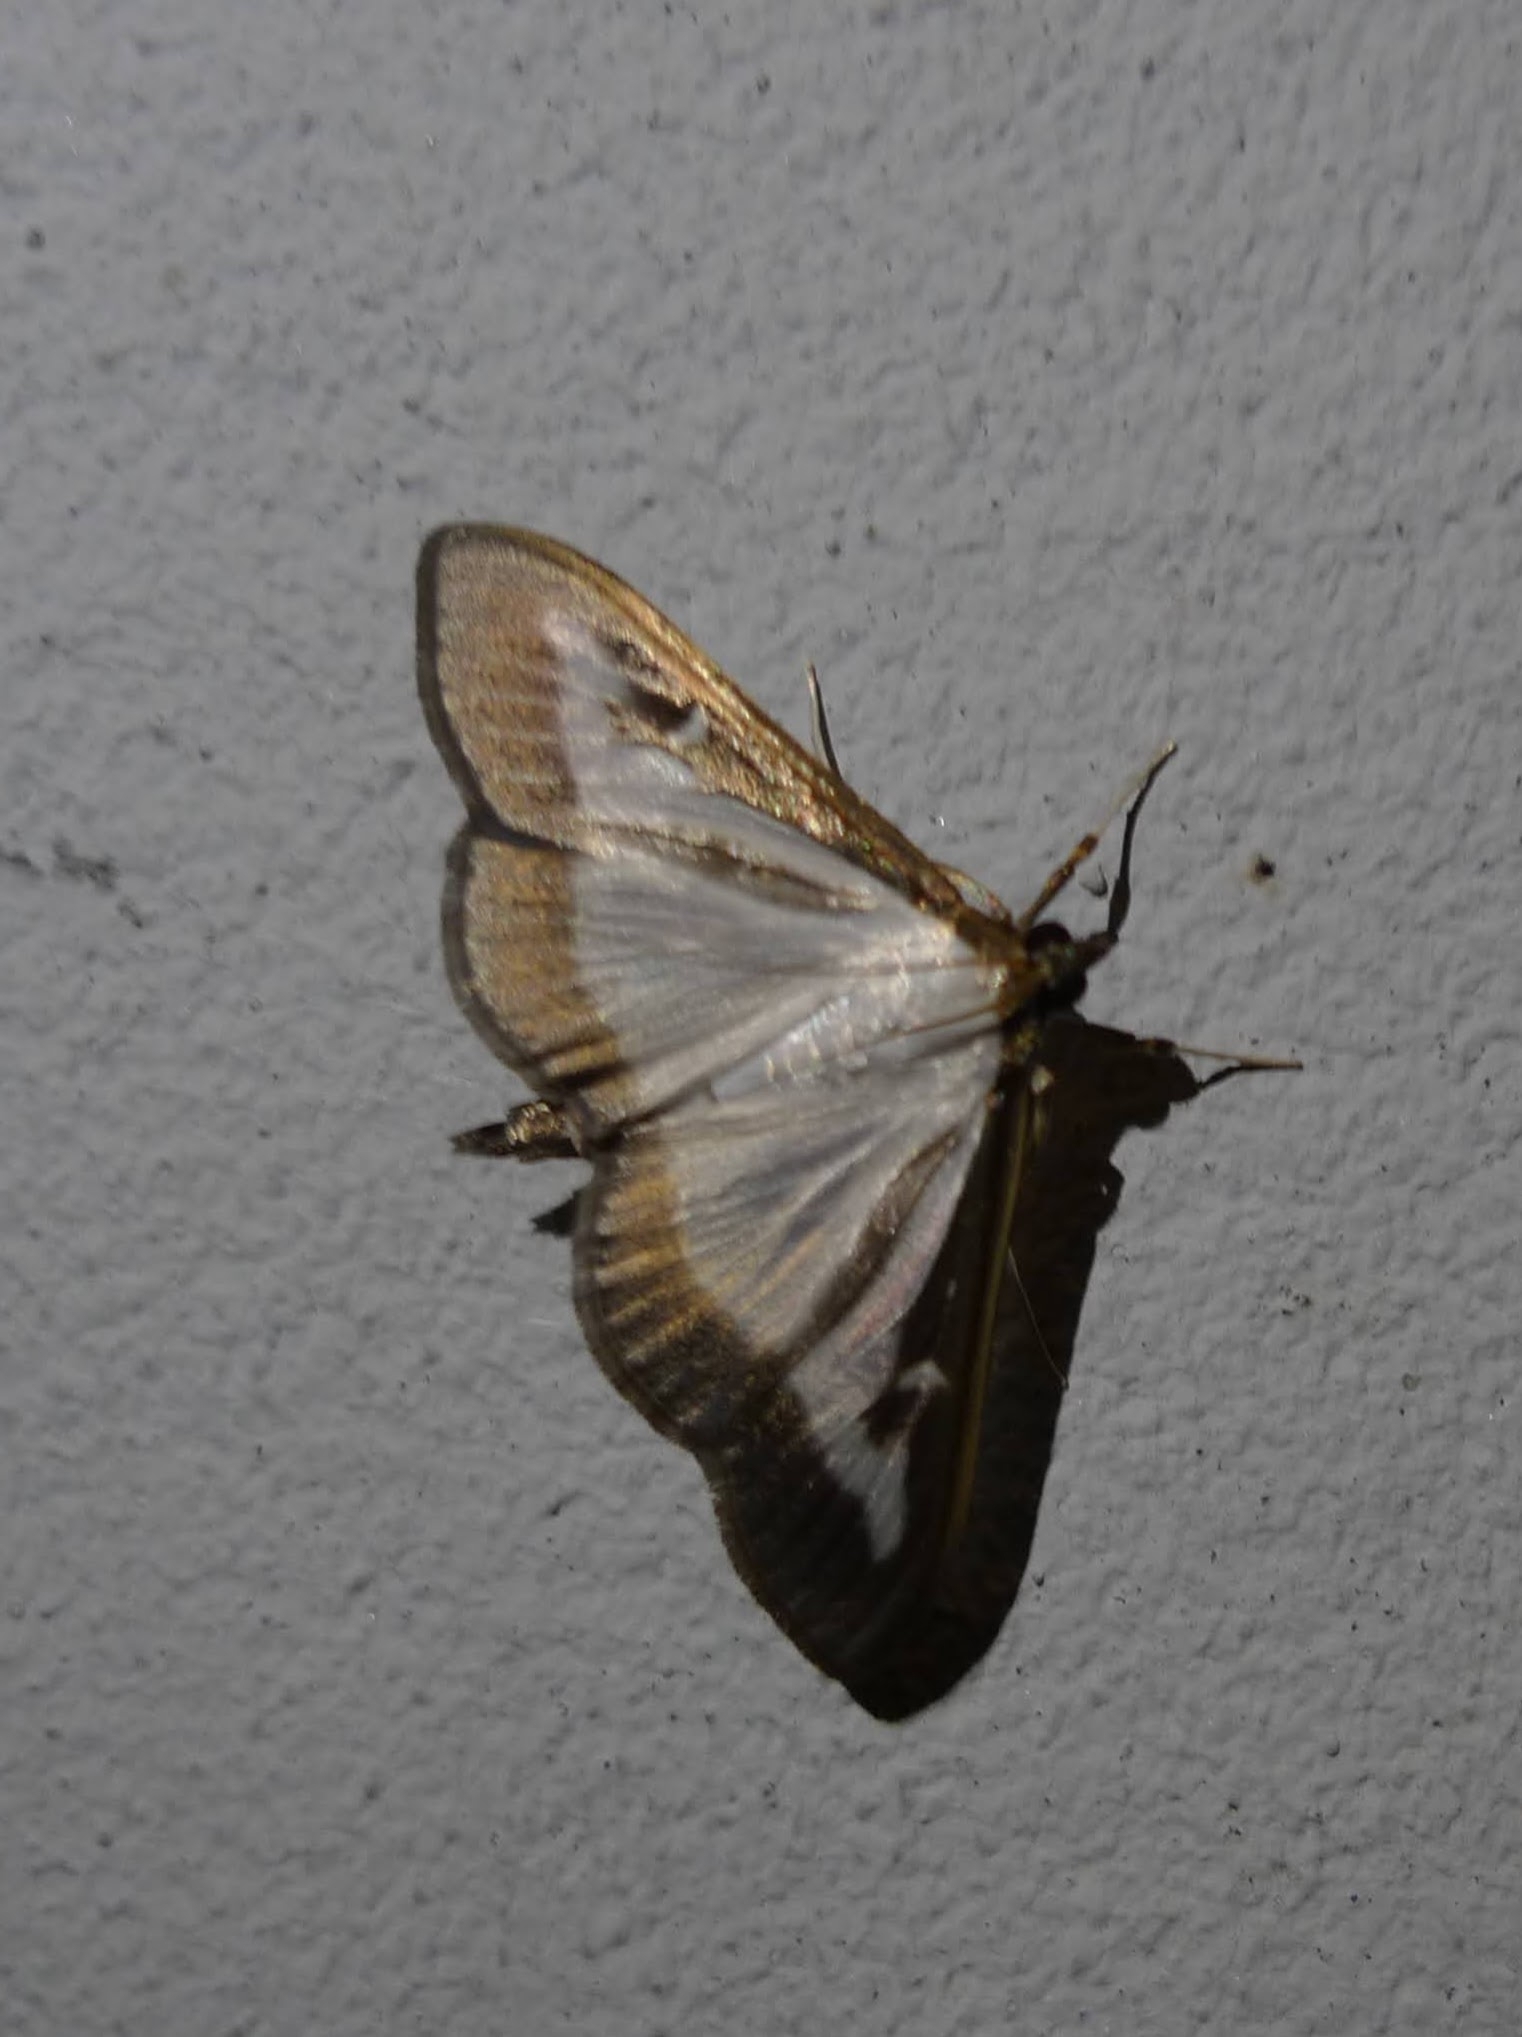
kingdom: Animalia
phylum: Arthropoda
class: Insecta
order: Lepidoptera
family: Crambidae
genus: Cydalima
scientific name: Cydalima perspectalis
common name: Box tree moth
